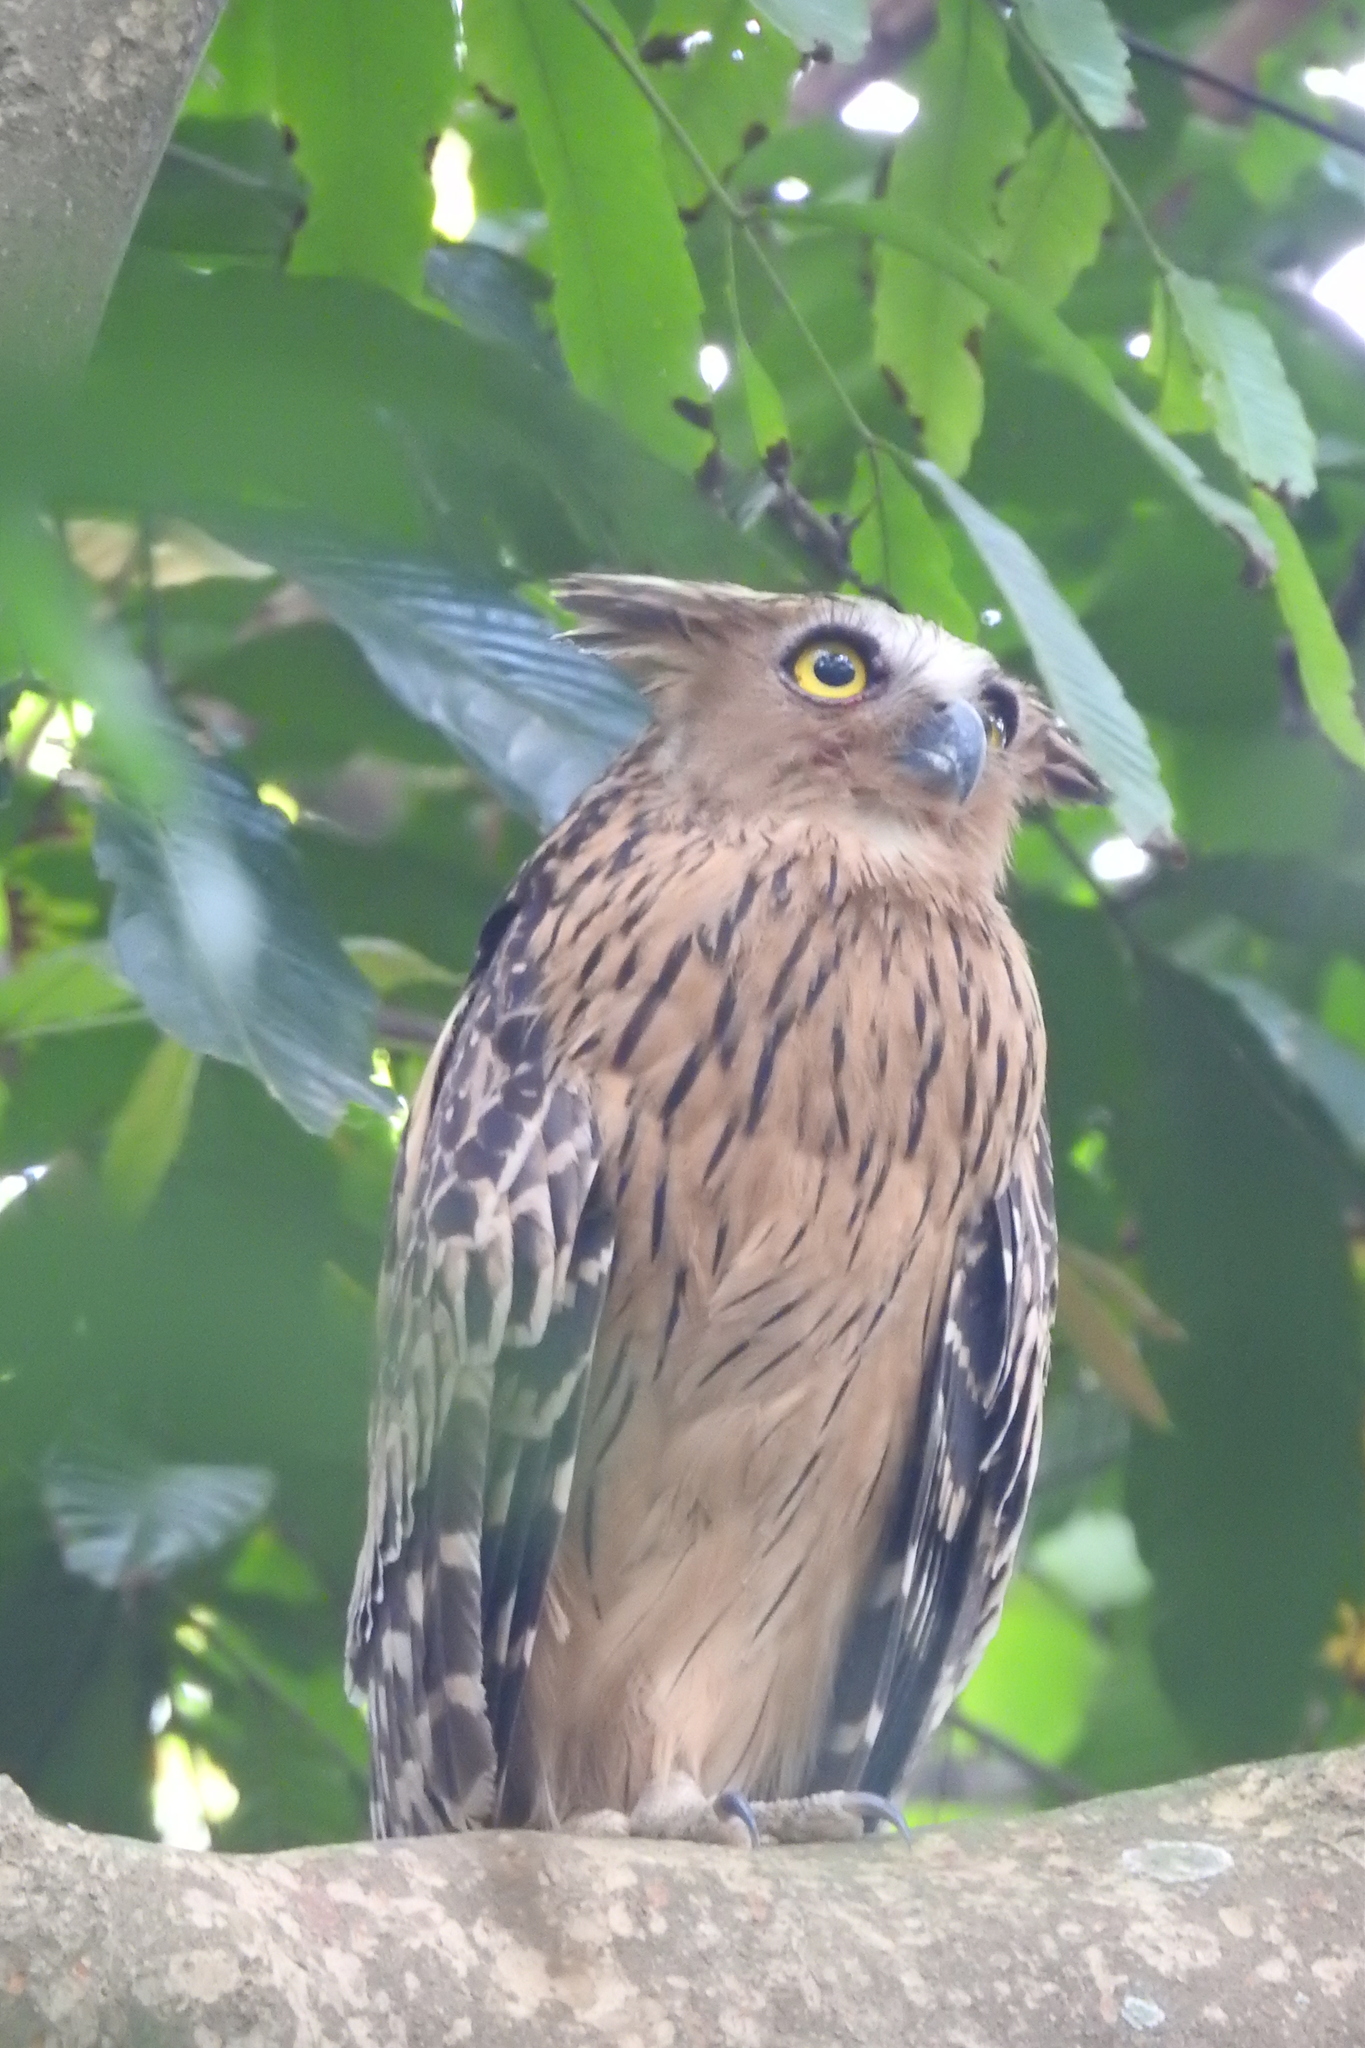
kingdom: Animalia
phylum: Chordata
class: Aves
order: Strigiformes
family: Strigidae
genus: Ketupa
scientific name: Ketupa ketupu
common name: Buffy fish-owl
